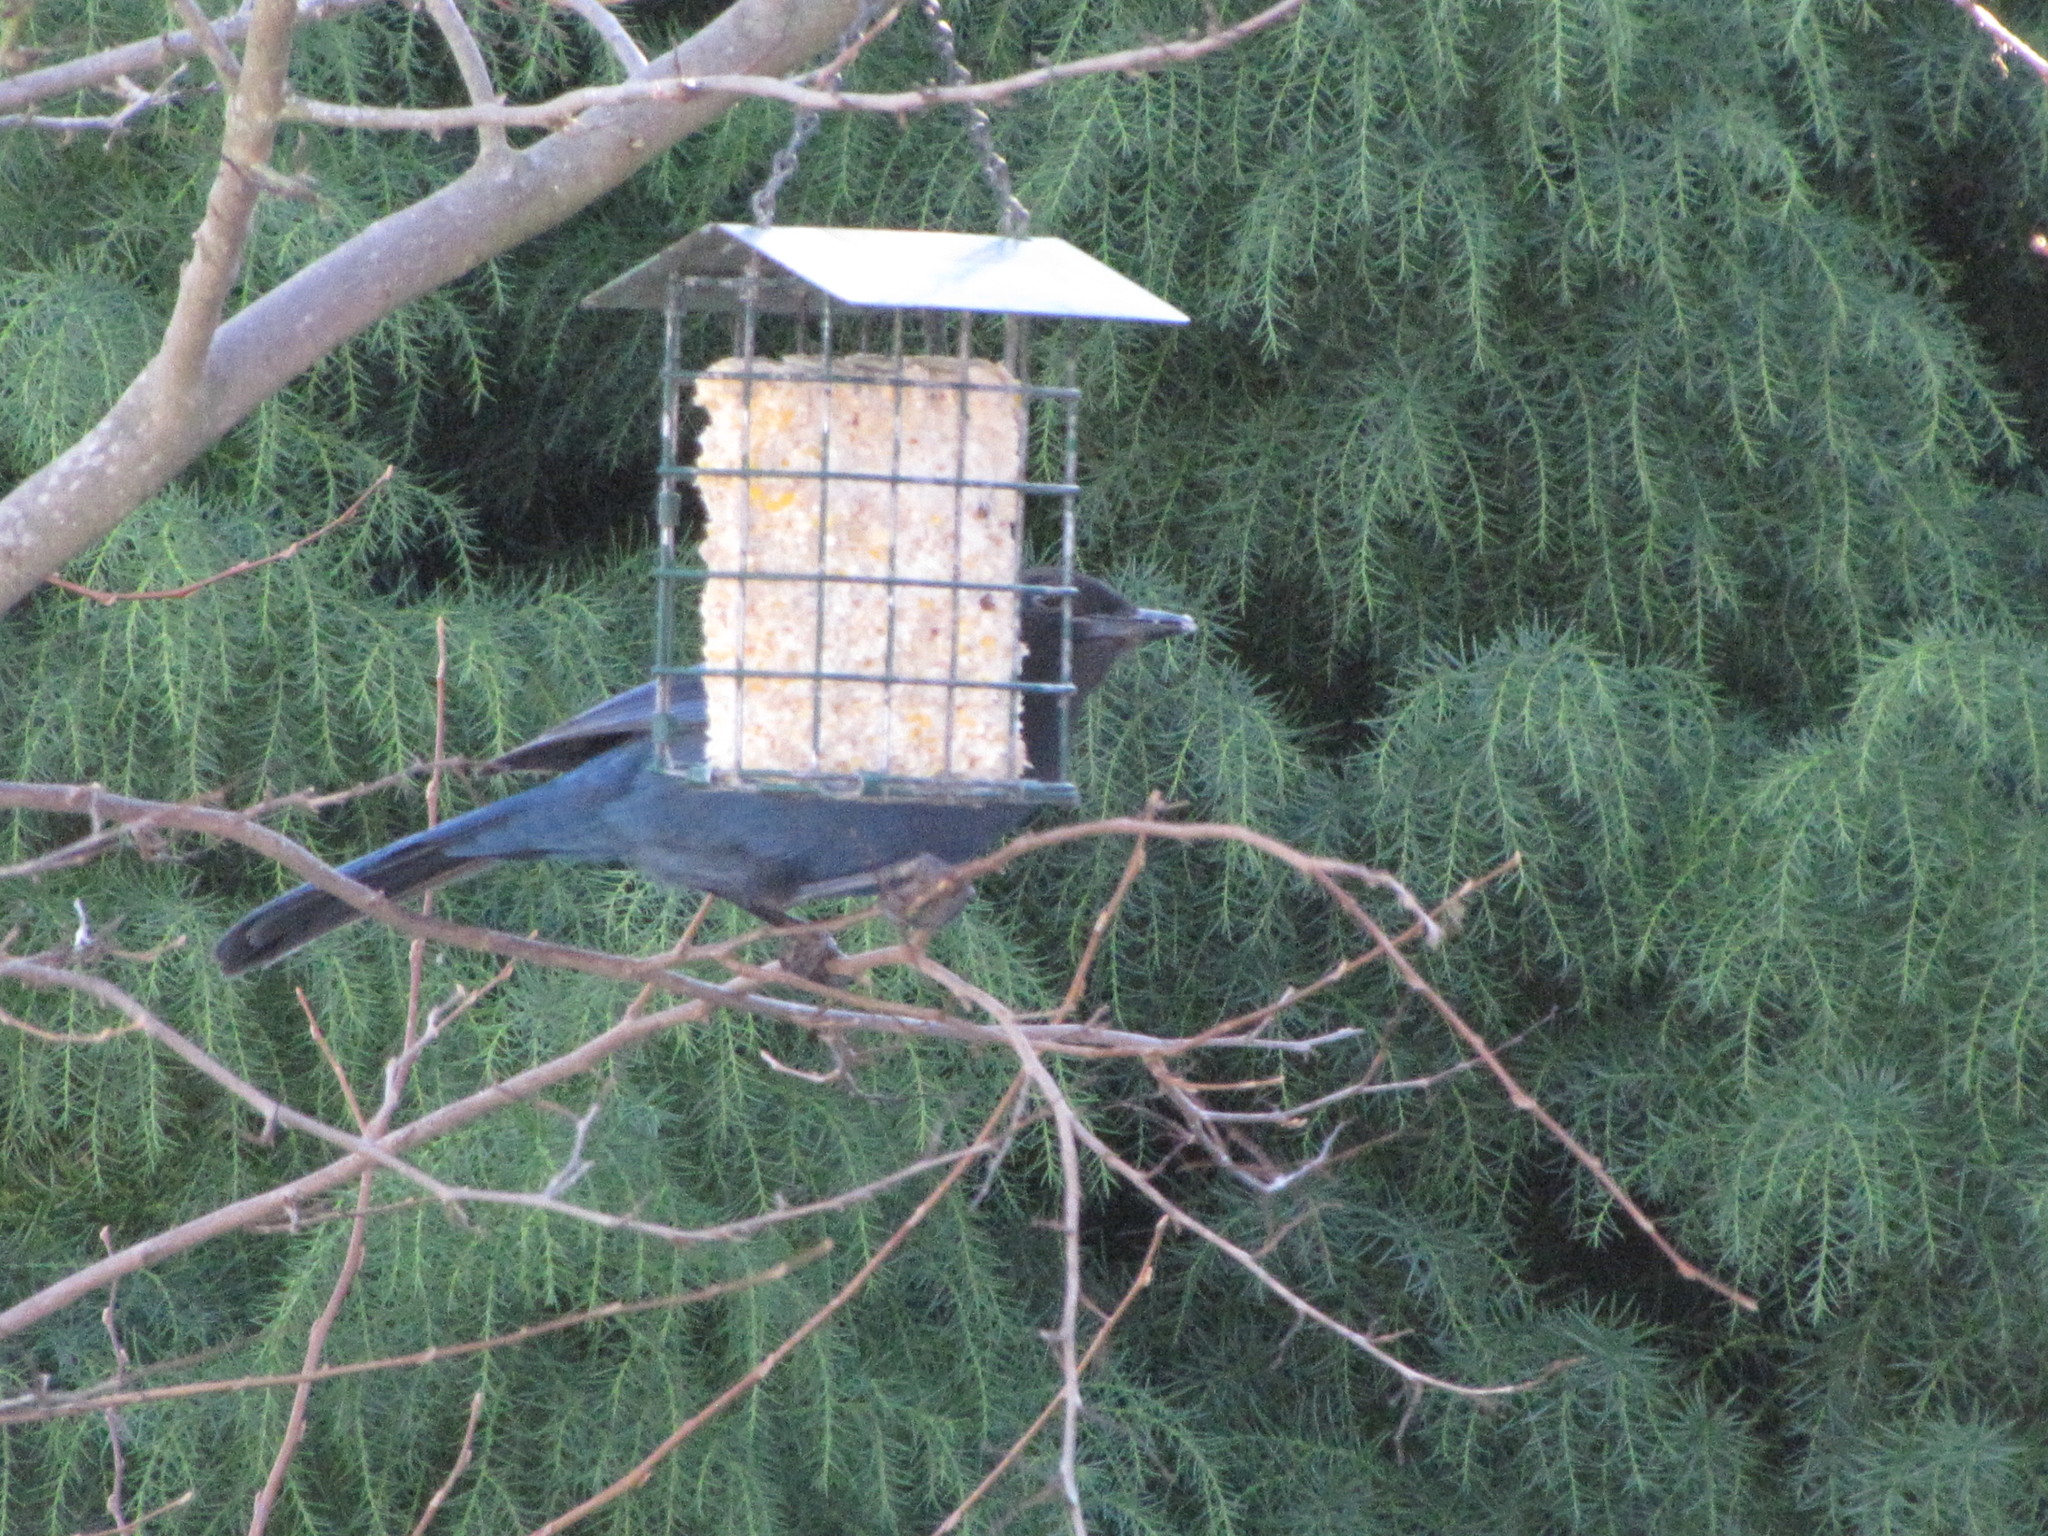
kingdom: Animalia
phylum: Chordata
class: Aves
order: Passeriformes
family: Corvidae
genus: Cyanocitta
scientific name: Cyanocitta stelleri
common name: Steller's jay
